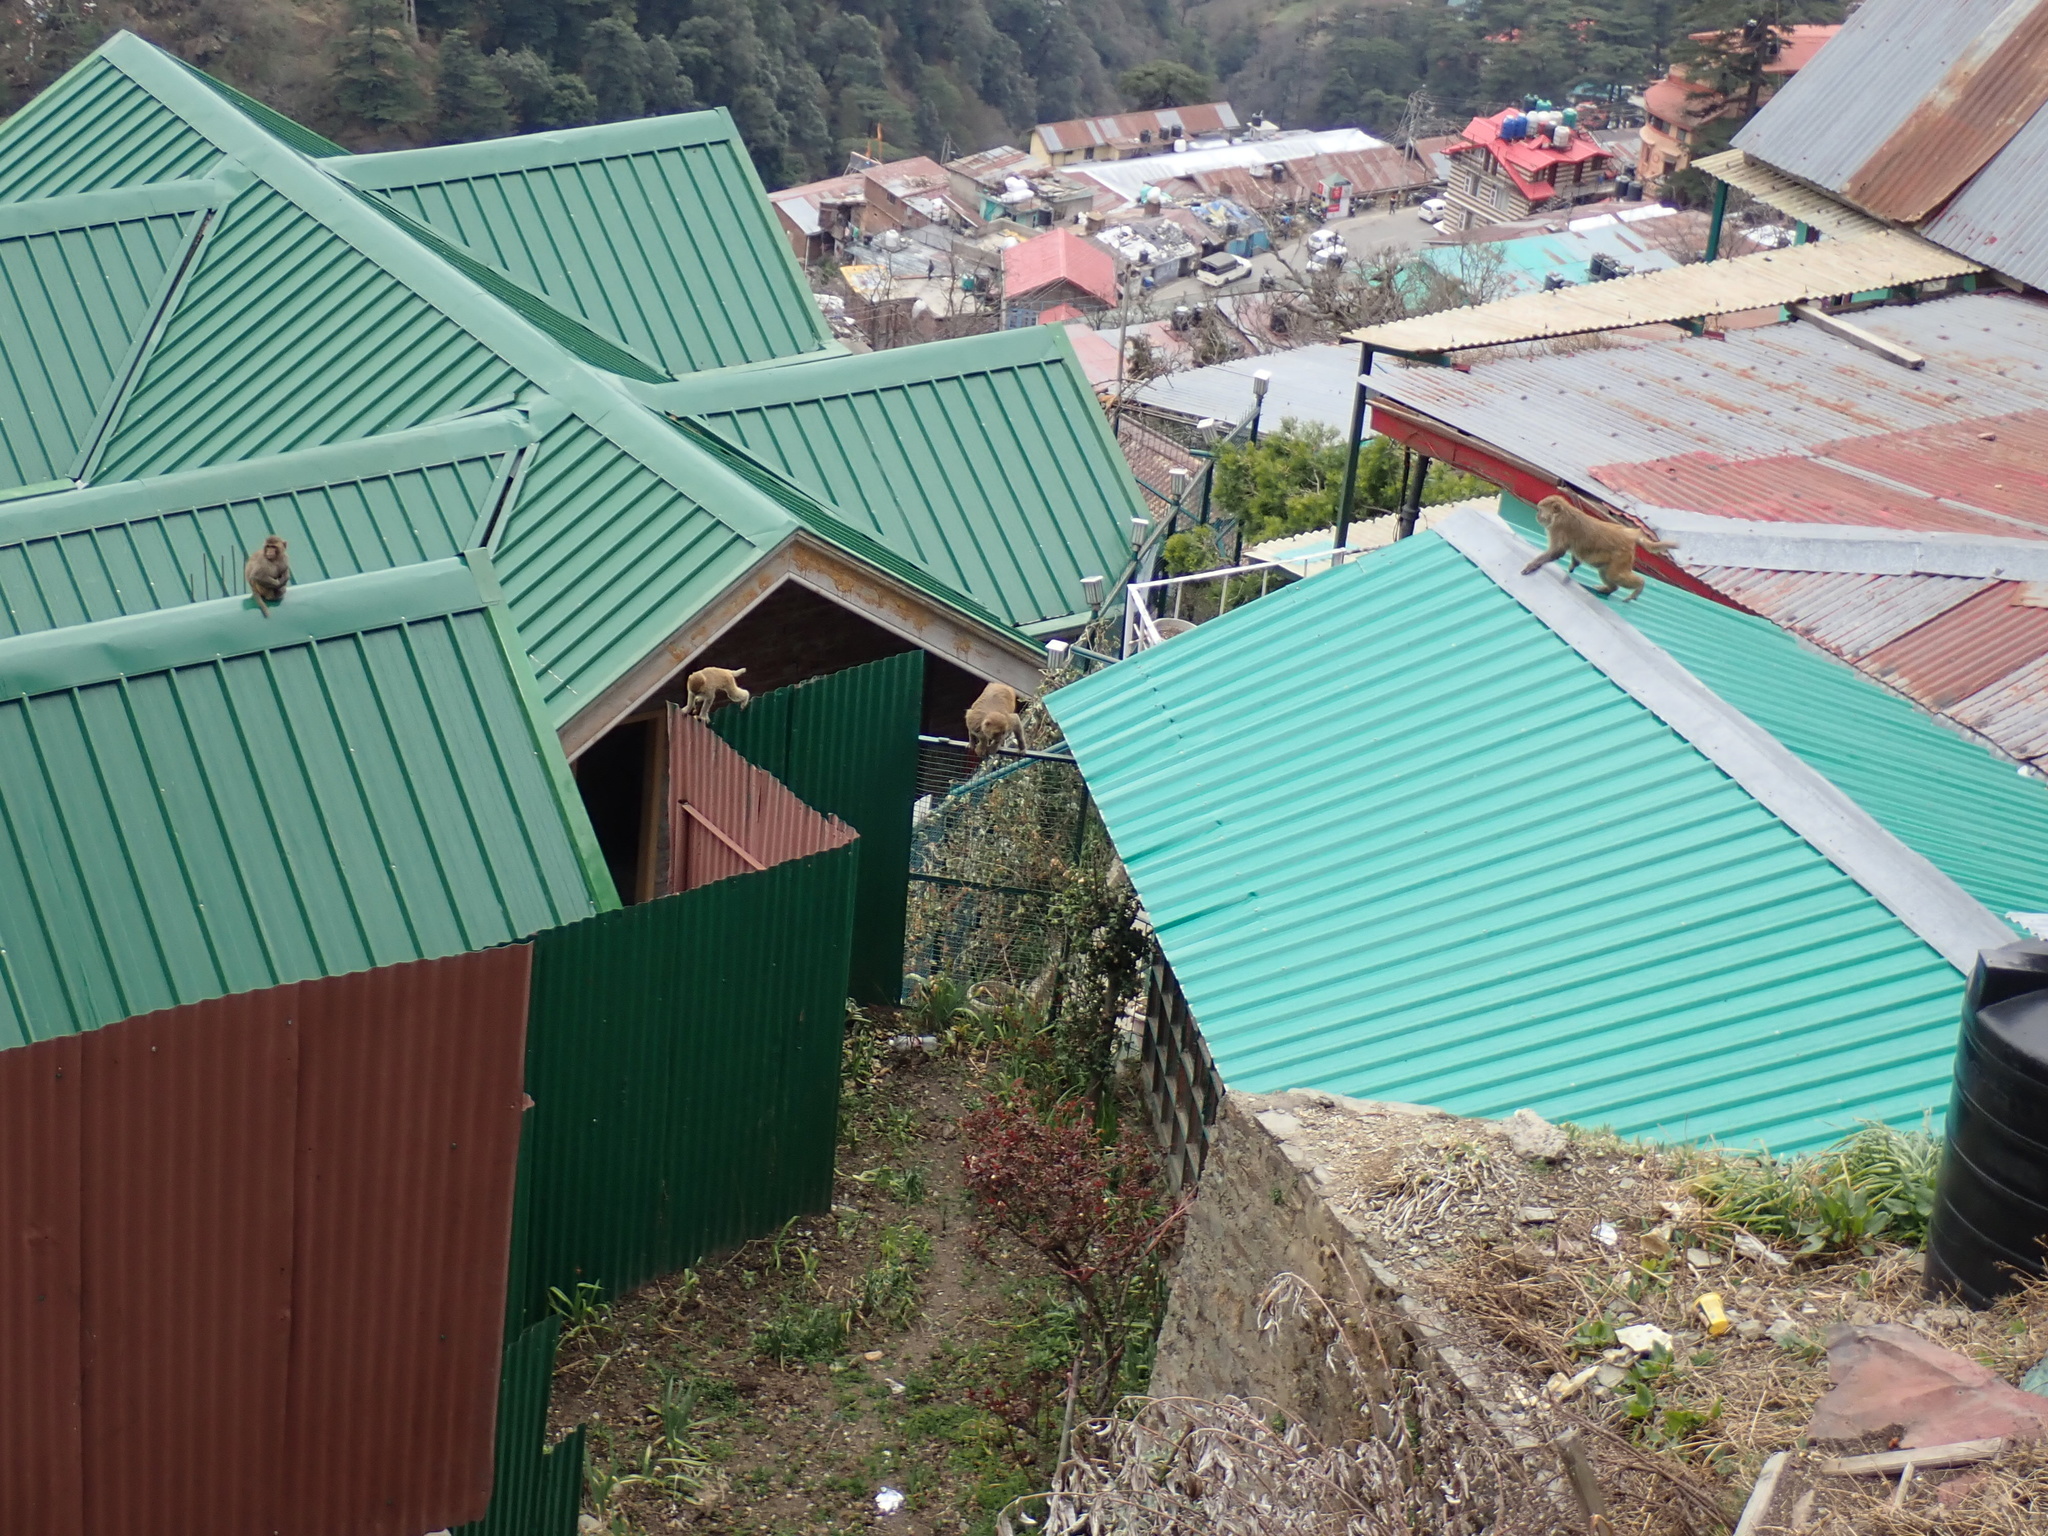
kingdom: Animalia
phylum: Chordata
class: Mammalia
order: Primates
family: Cercopithecidae
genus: Macaca
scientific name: Macaca mulatta
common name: Rhesus monkey
